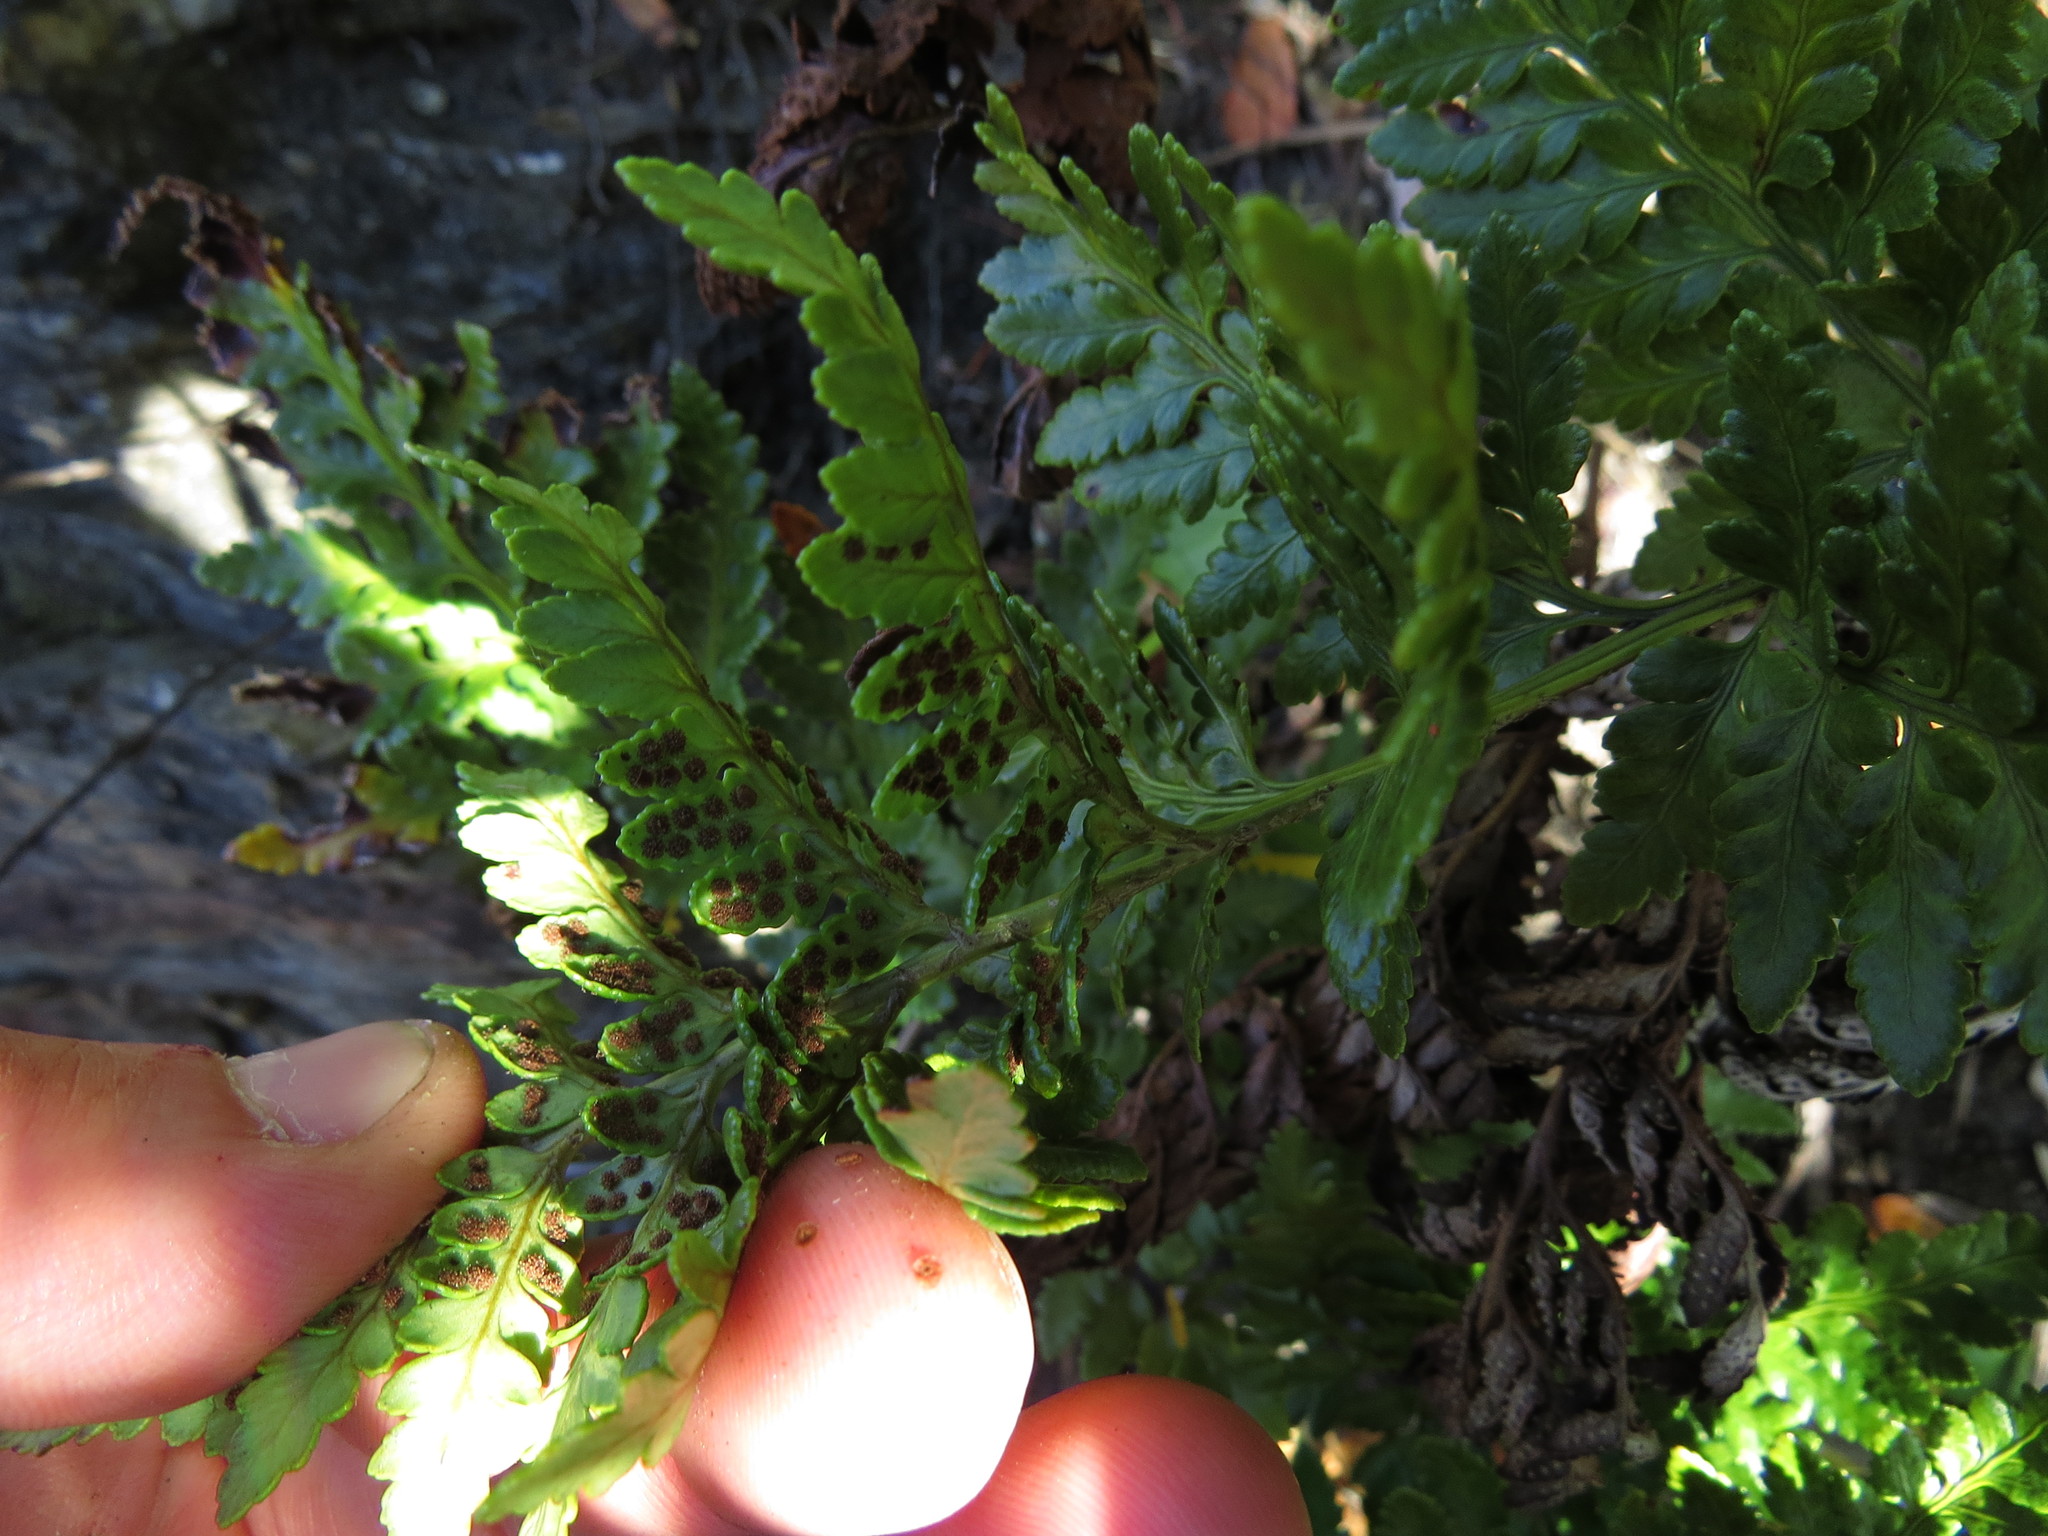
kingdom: Plantae
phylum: Tracheophyta
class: Polypodiopsida
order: Polypodiales
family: Dryopteridaceae
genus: Rumohra
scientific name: Rumohra adiantiformis
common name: Leather fern
